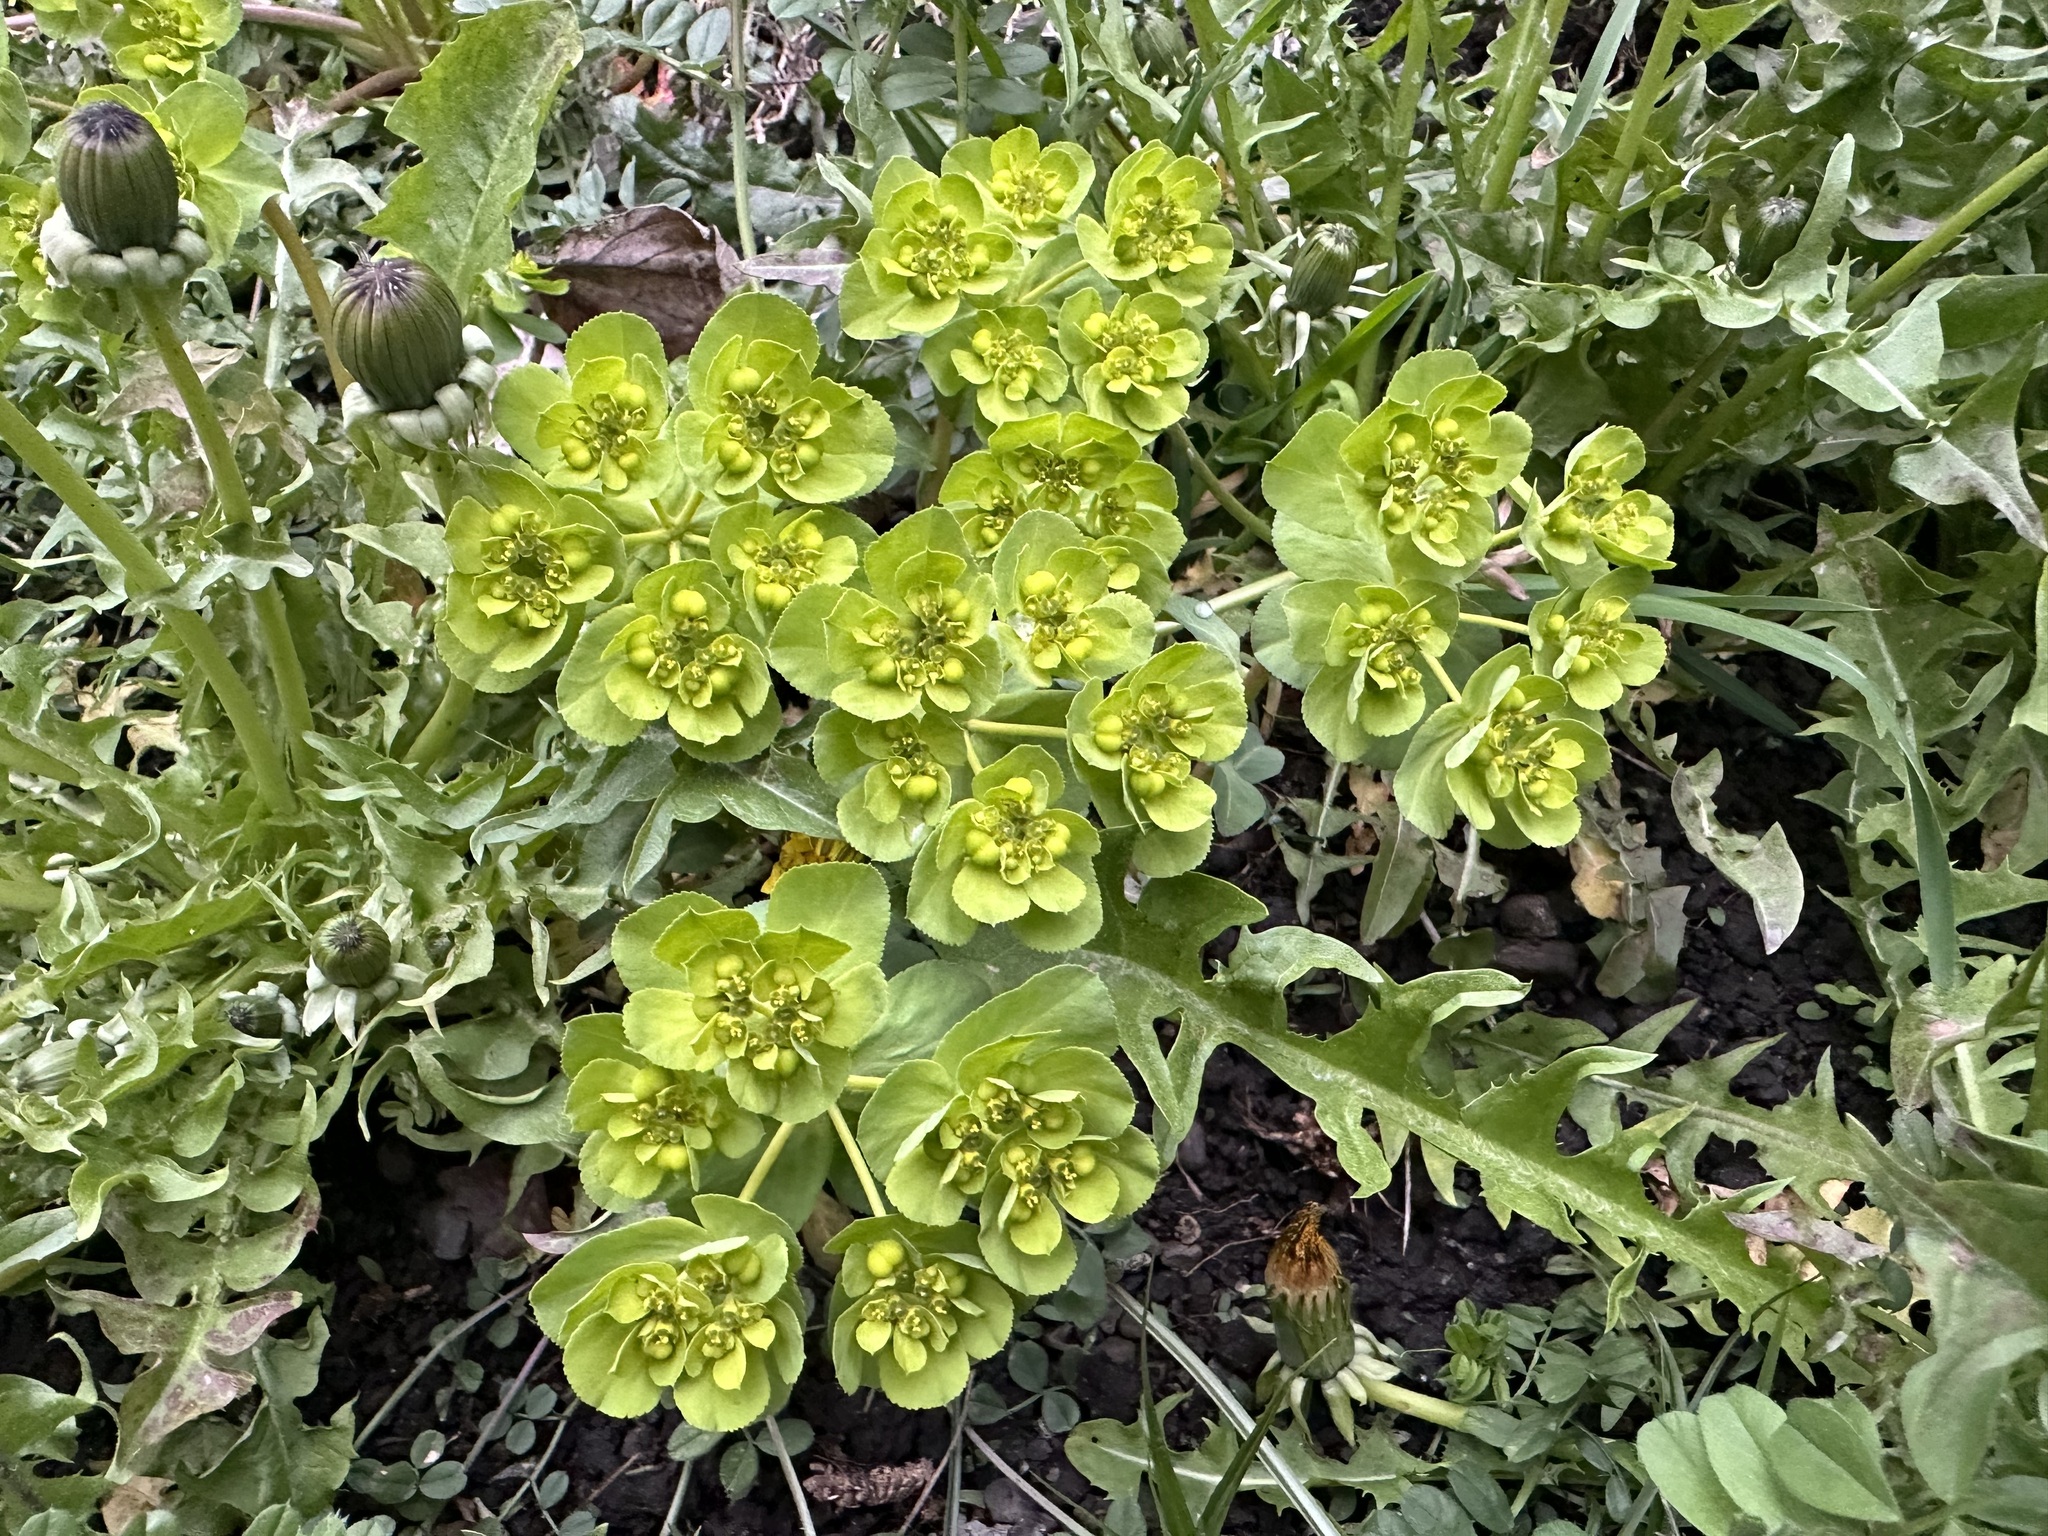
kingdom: Plantae
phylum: Tracheophyta
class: Magnoliopsida
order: Malpighiales
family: Euphorbiaceae
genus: Euphorbia
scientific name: Euphorbia helioscopia
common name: Sun spurge
